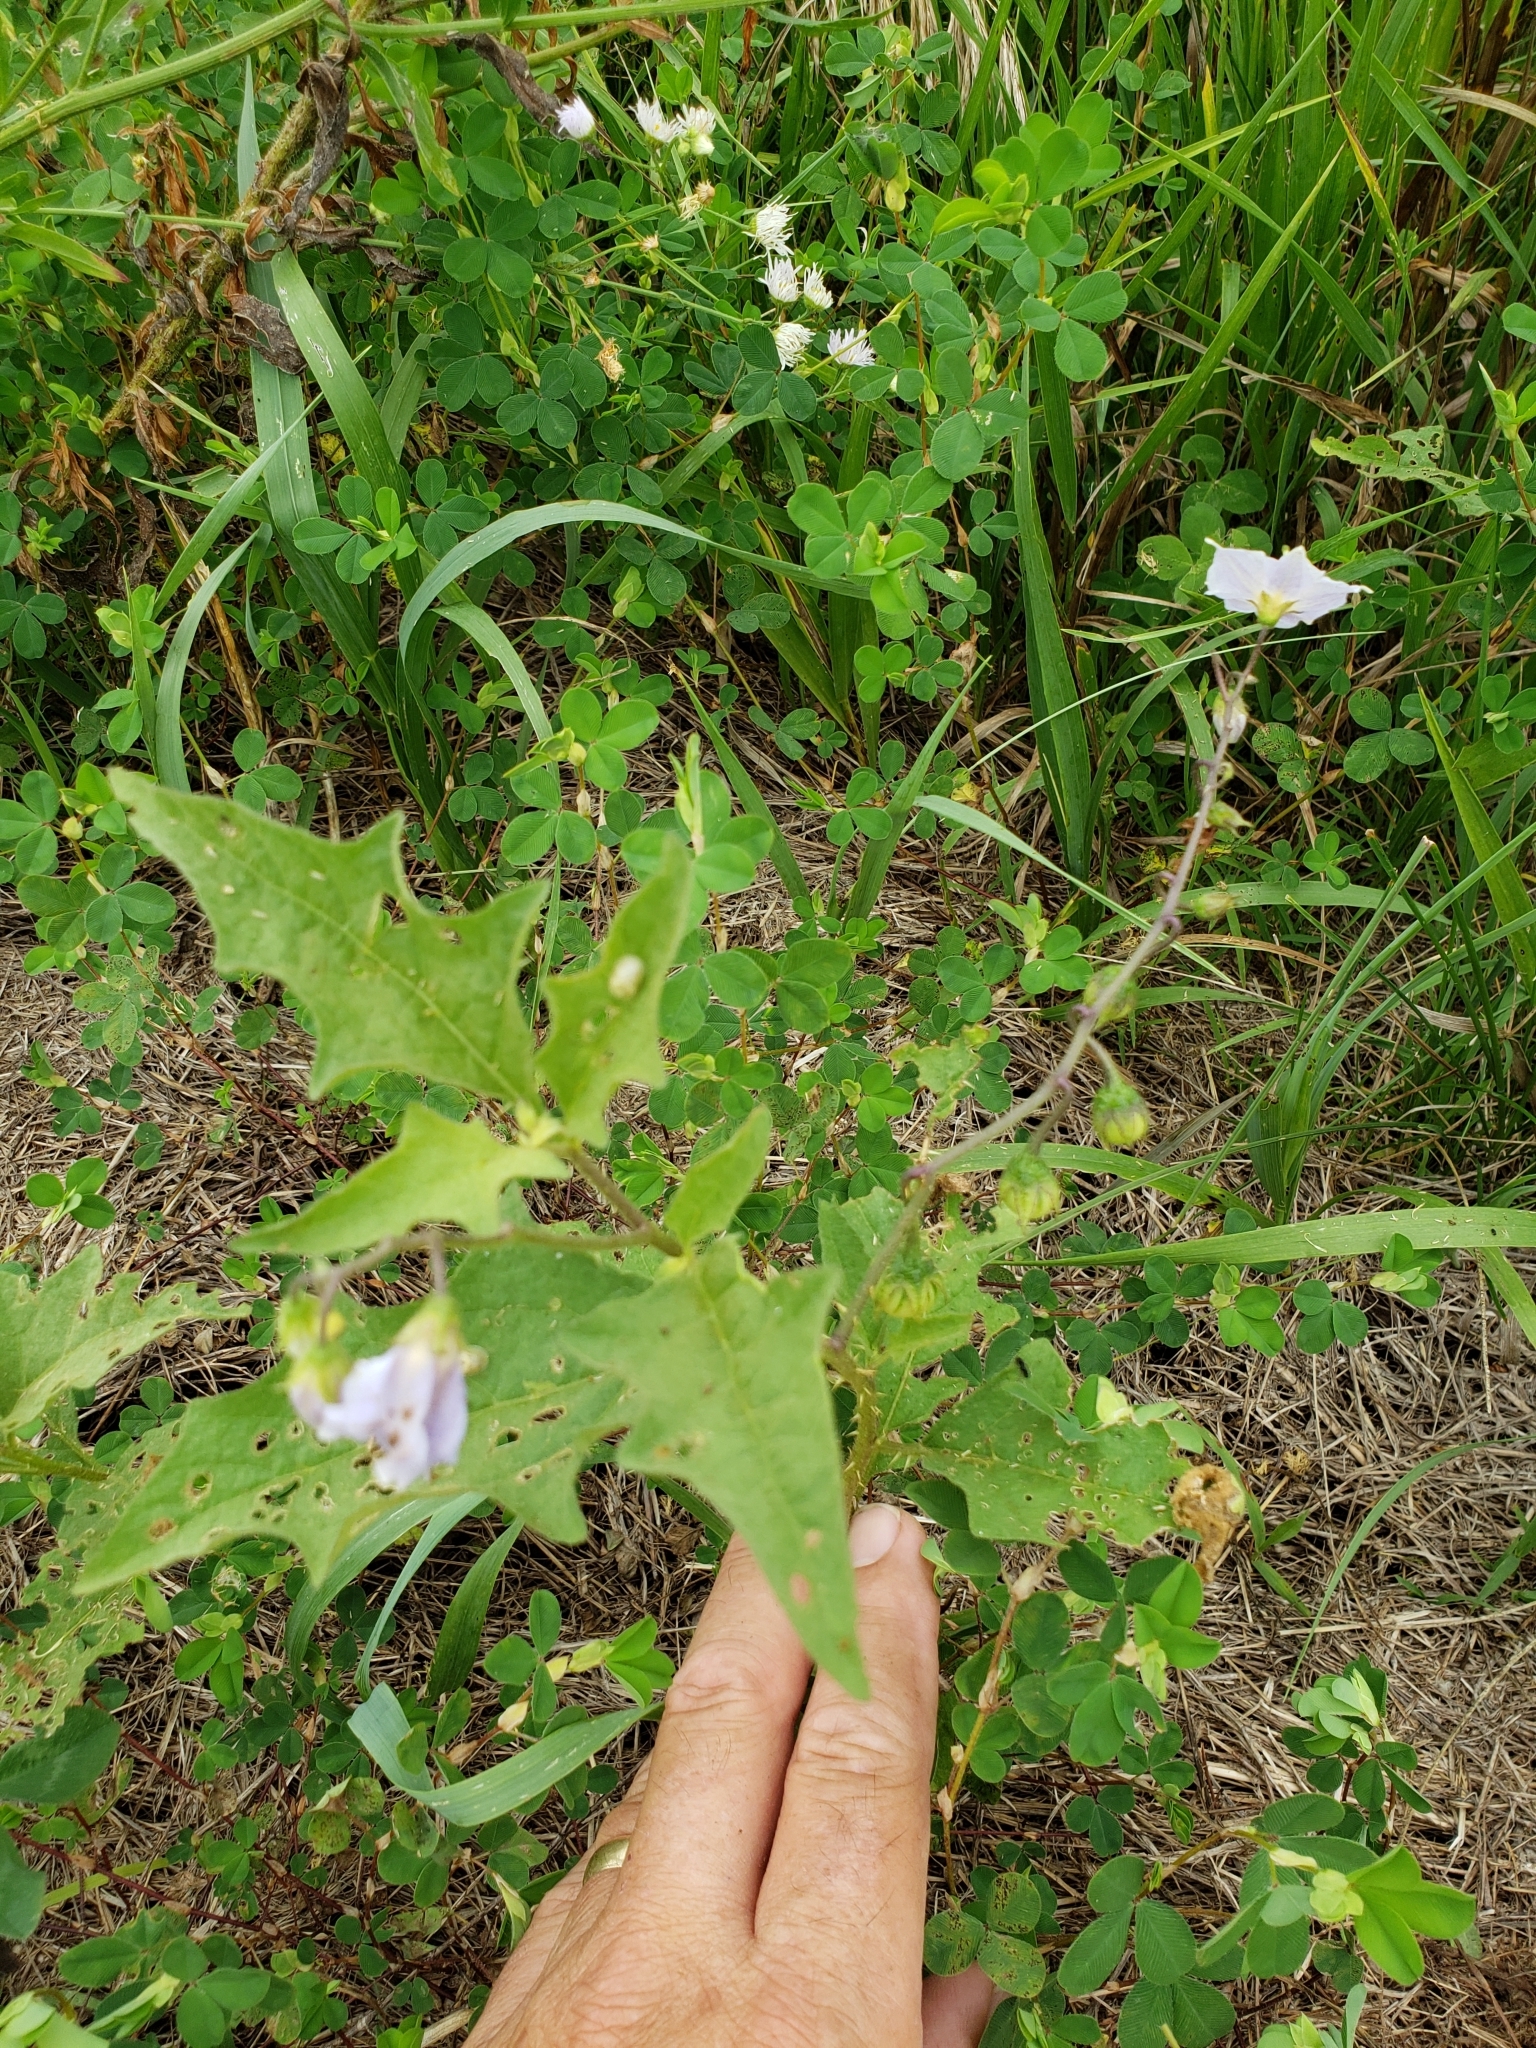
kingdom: Plantae
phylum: Tracheophyta
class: Magnoliopsida
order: Solanales
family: Solanaceae
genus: Solanum
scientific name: Solanum carolinense
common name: Horse-nettle
